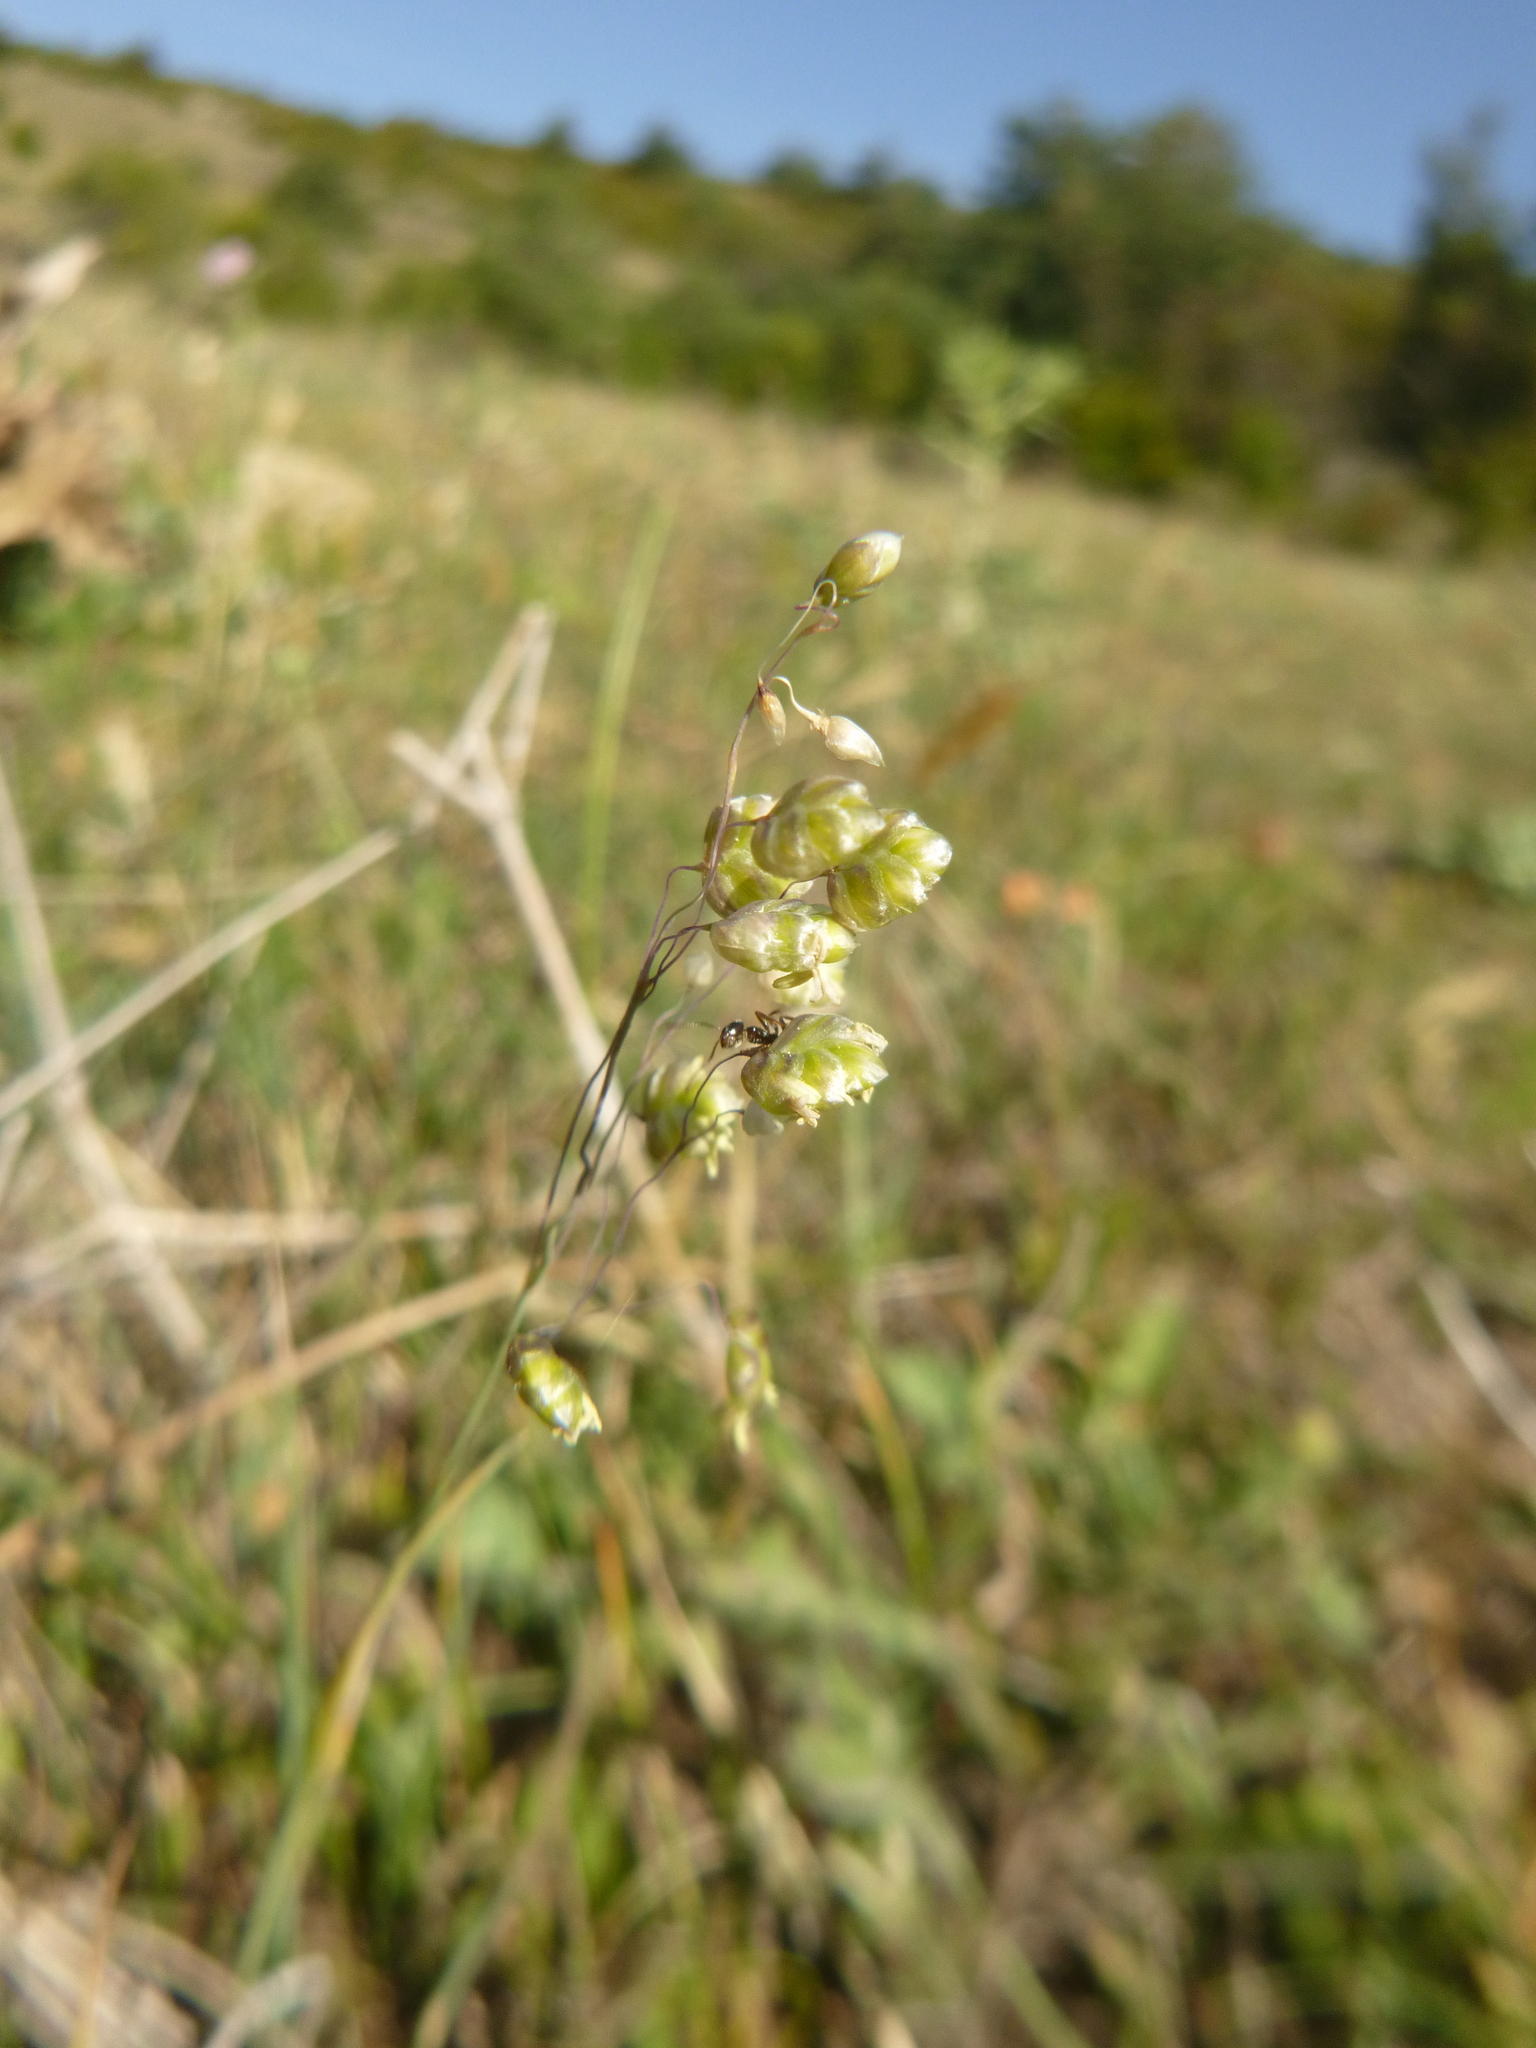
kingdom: Plantae
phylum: Tracheophyta
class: Liliopsida
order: Poales
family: Poaceae
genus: Briza
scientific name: Briza media
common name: Quaking grass
